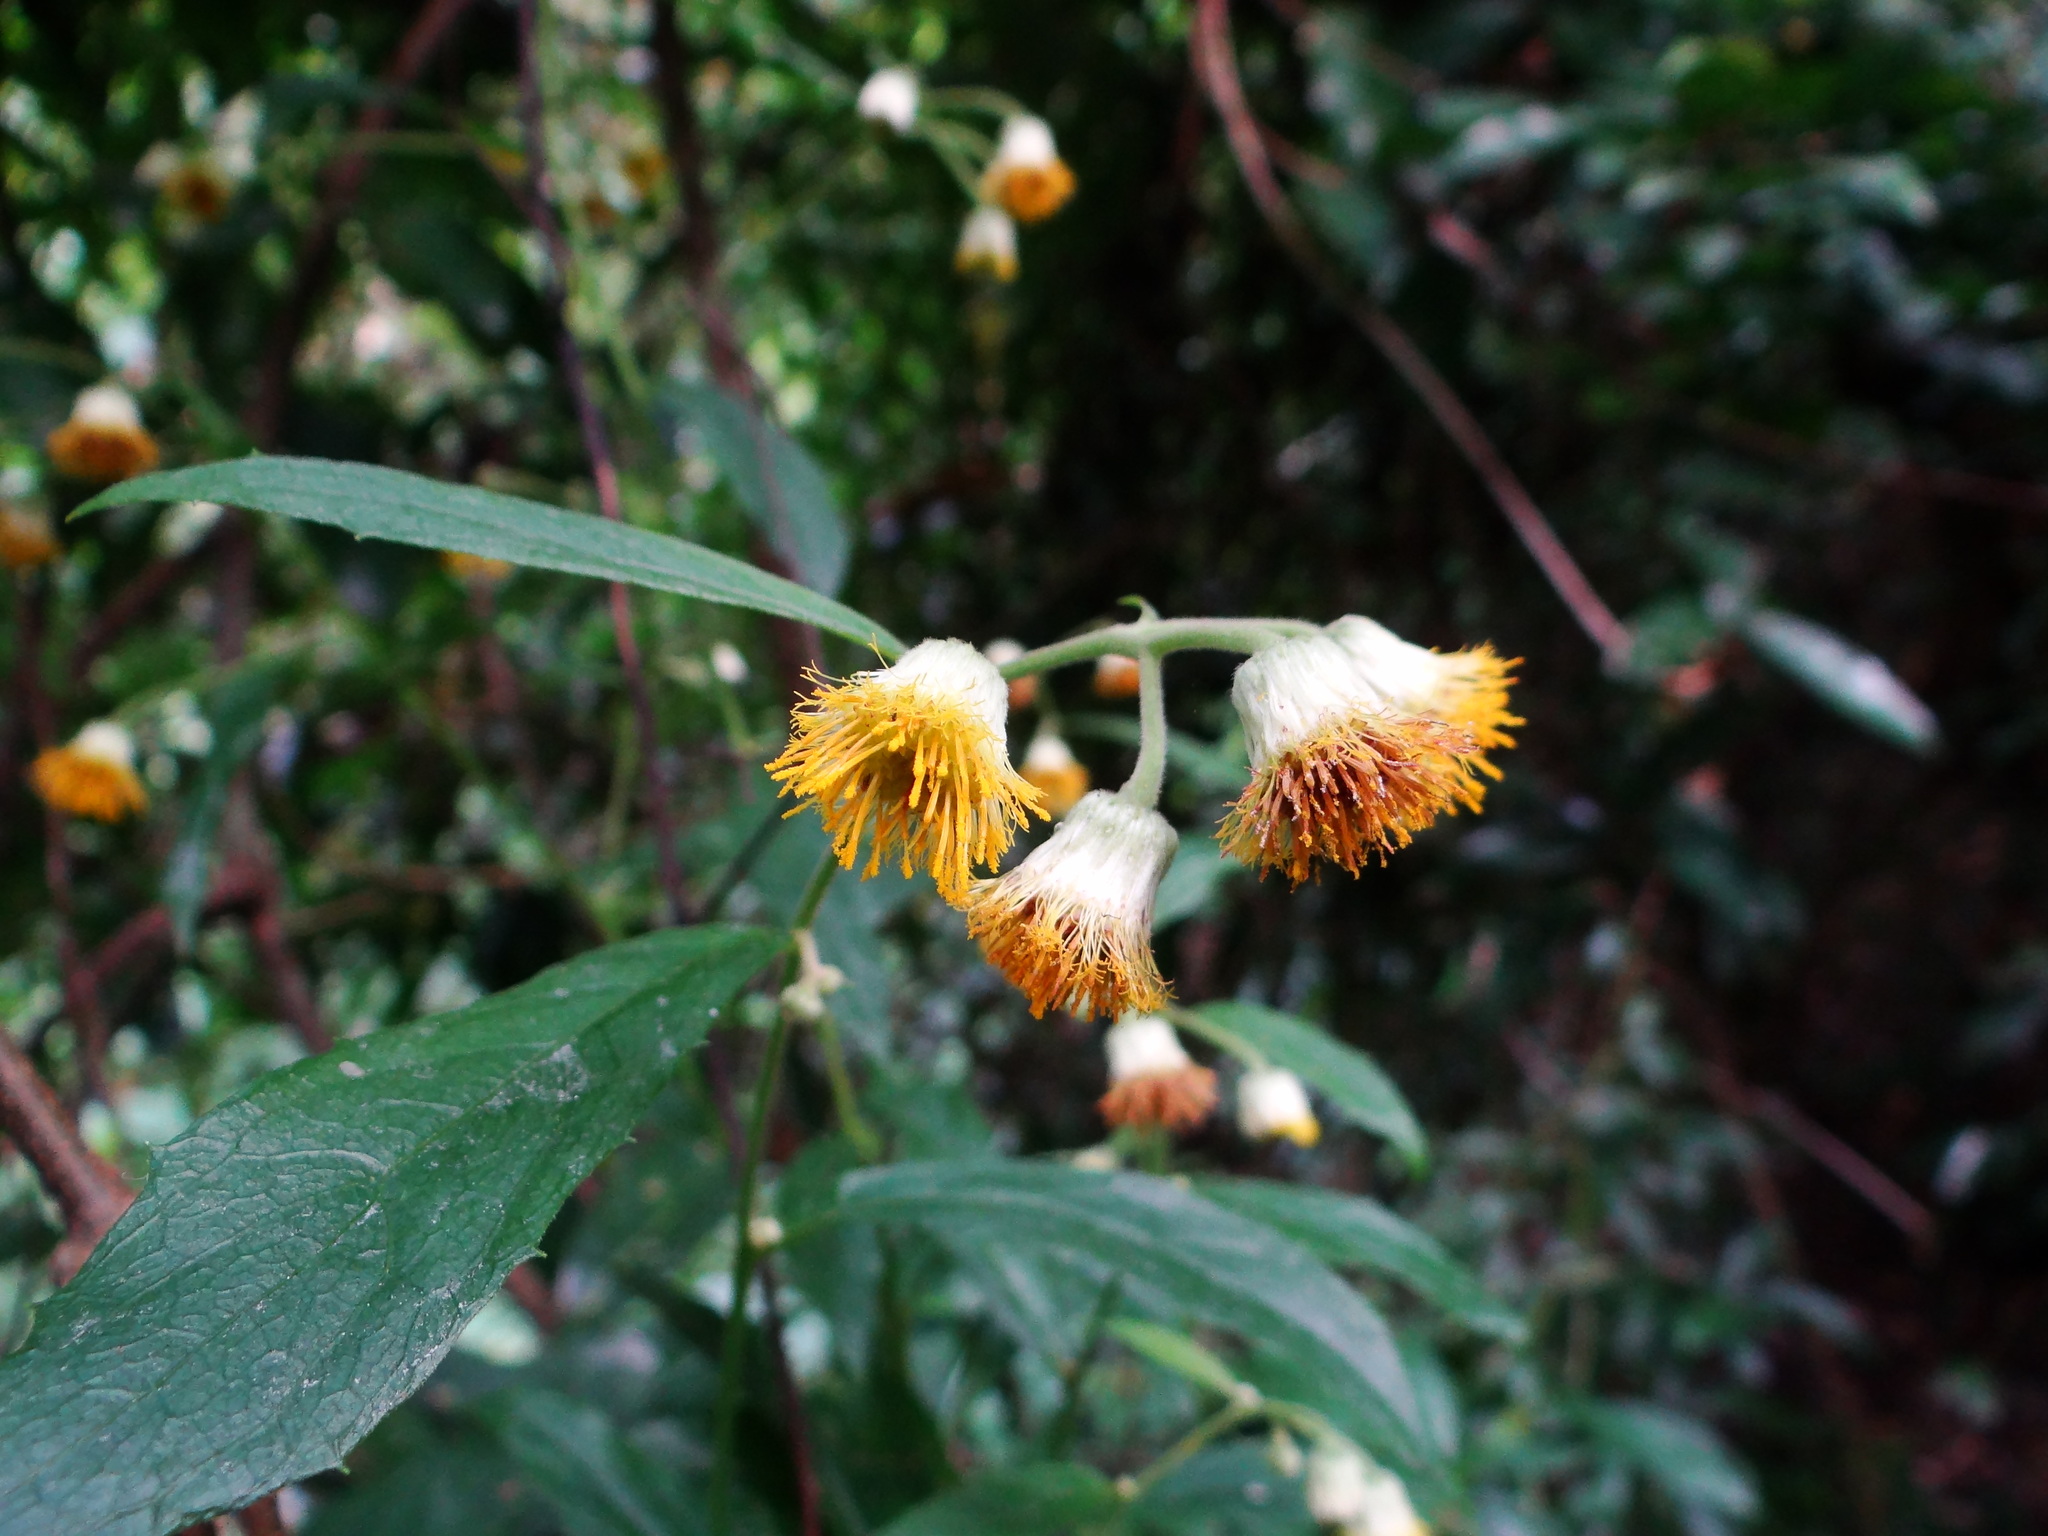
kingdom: Plantae
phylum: Tracheophyta
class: Magnoliopsida
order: Asterales
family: Asteraceae
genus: Blumea
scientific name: Blumea megacephala
